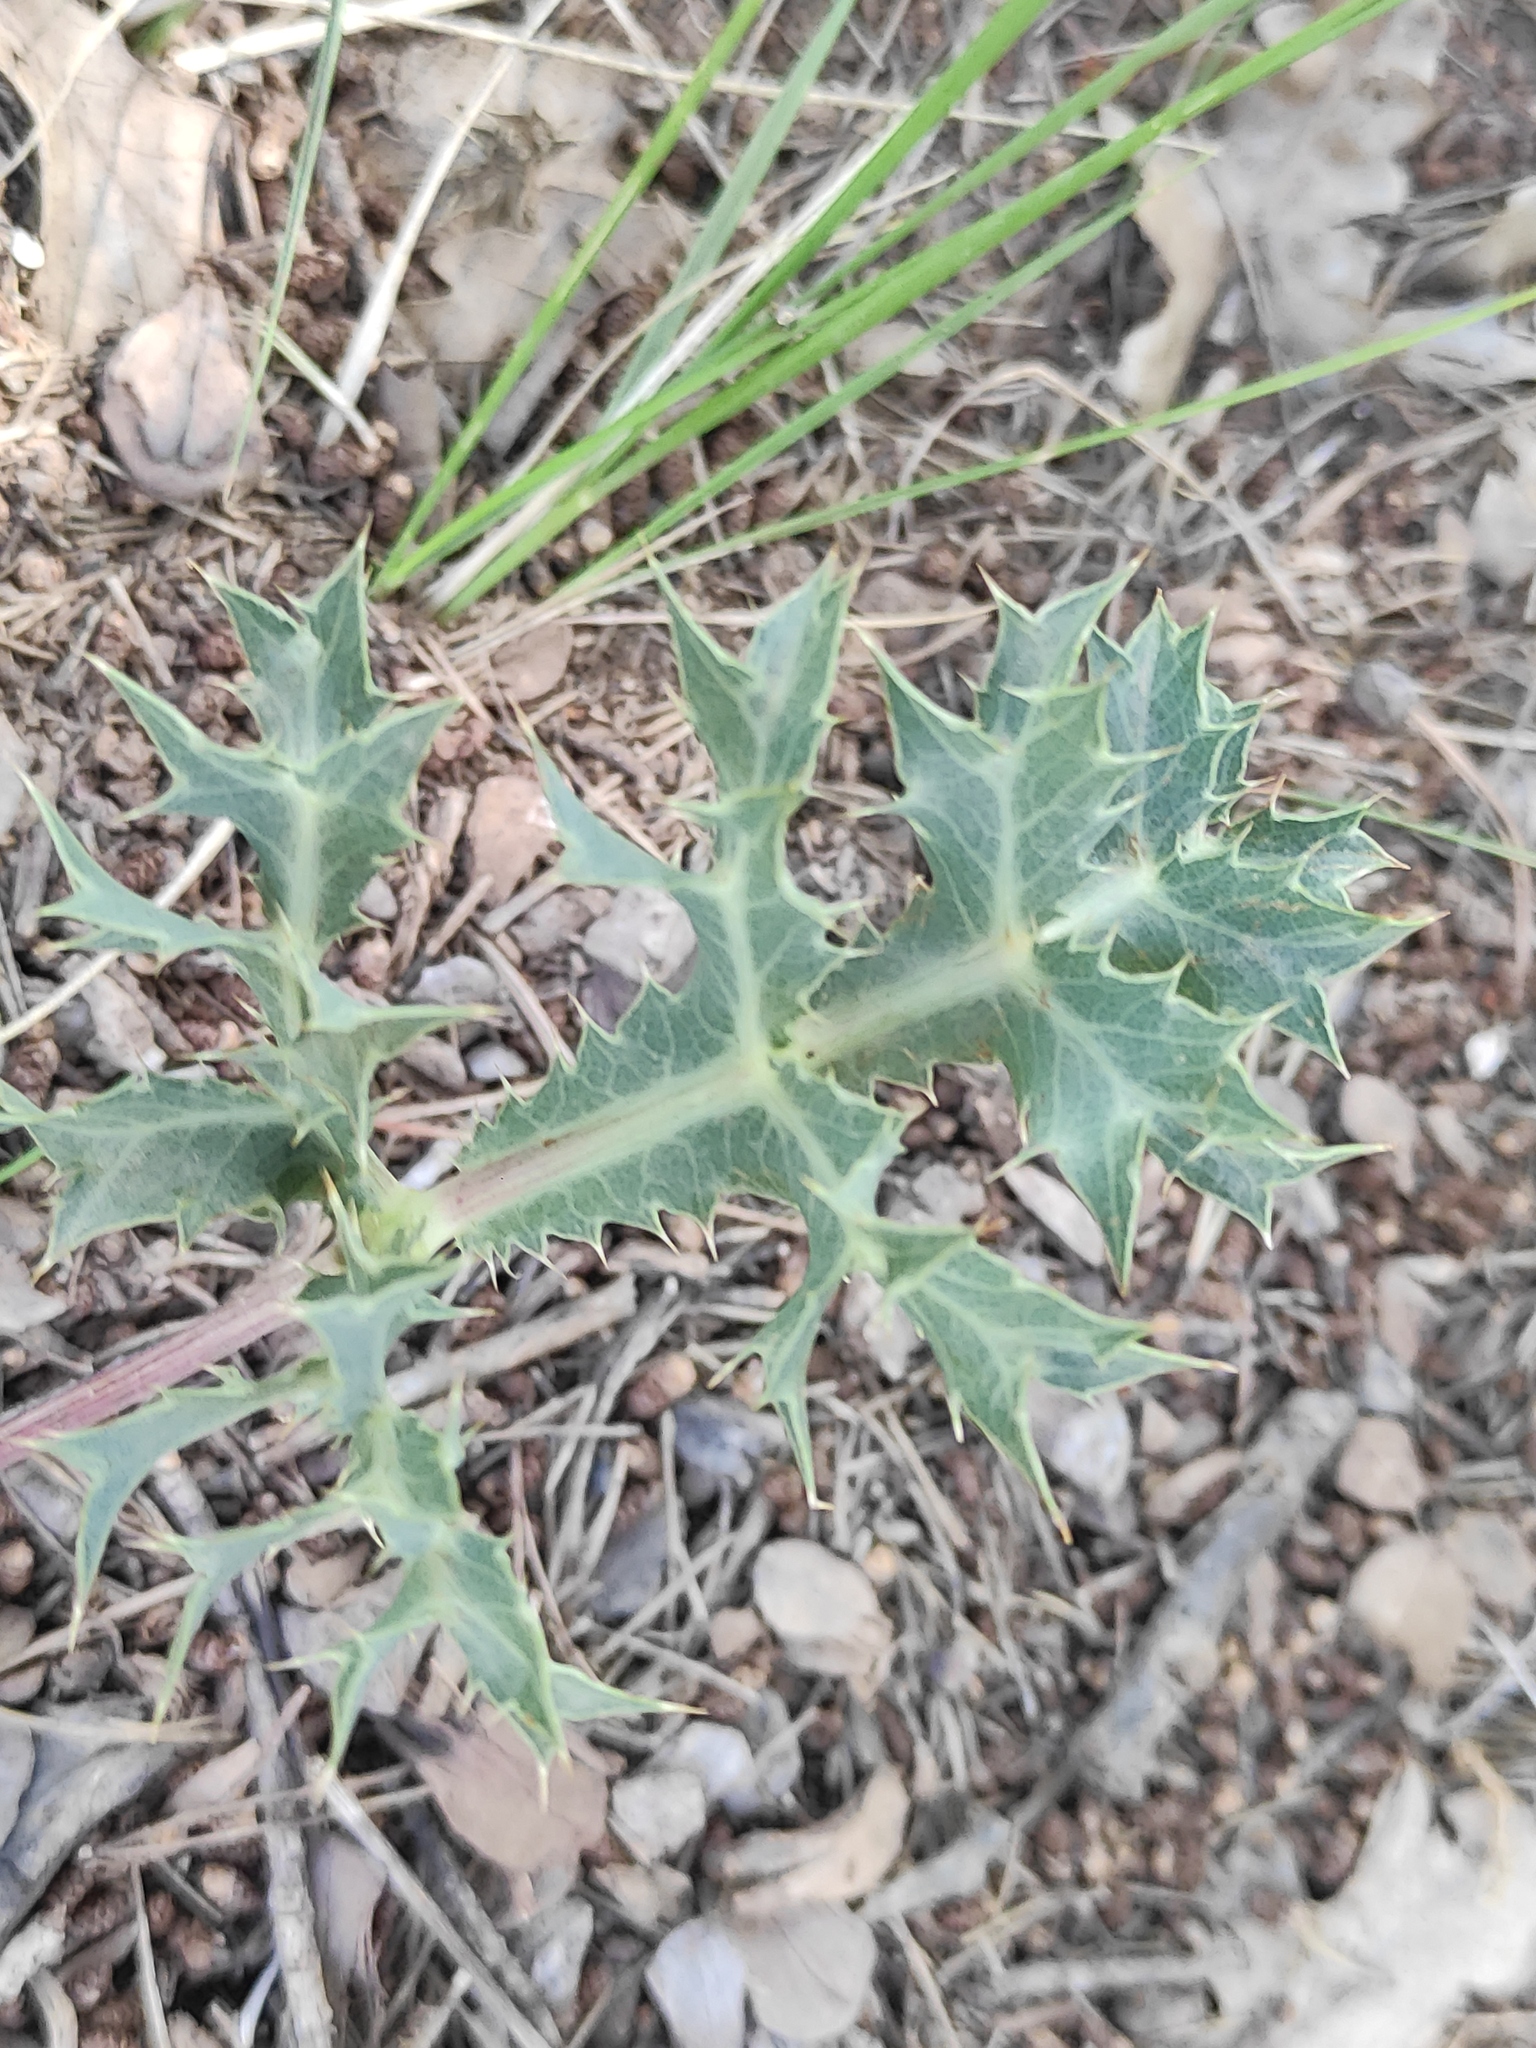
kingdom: Plantae
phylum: Tracheophyta
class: Magnoliopsida
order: Apiales
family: Apiaceae
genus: Eryngium
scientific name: Eryngium campestre
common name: Field eryngo
